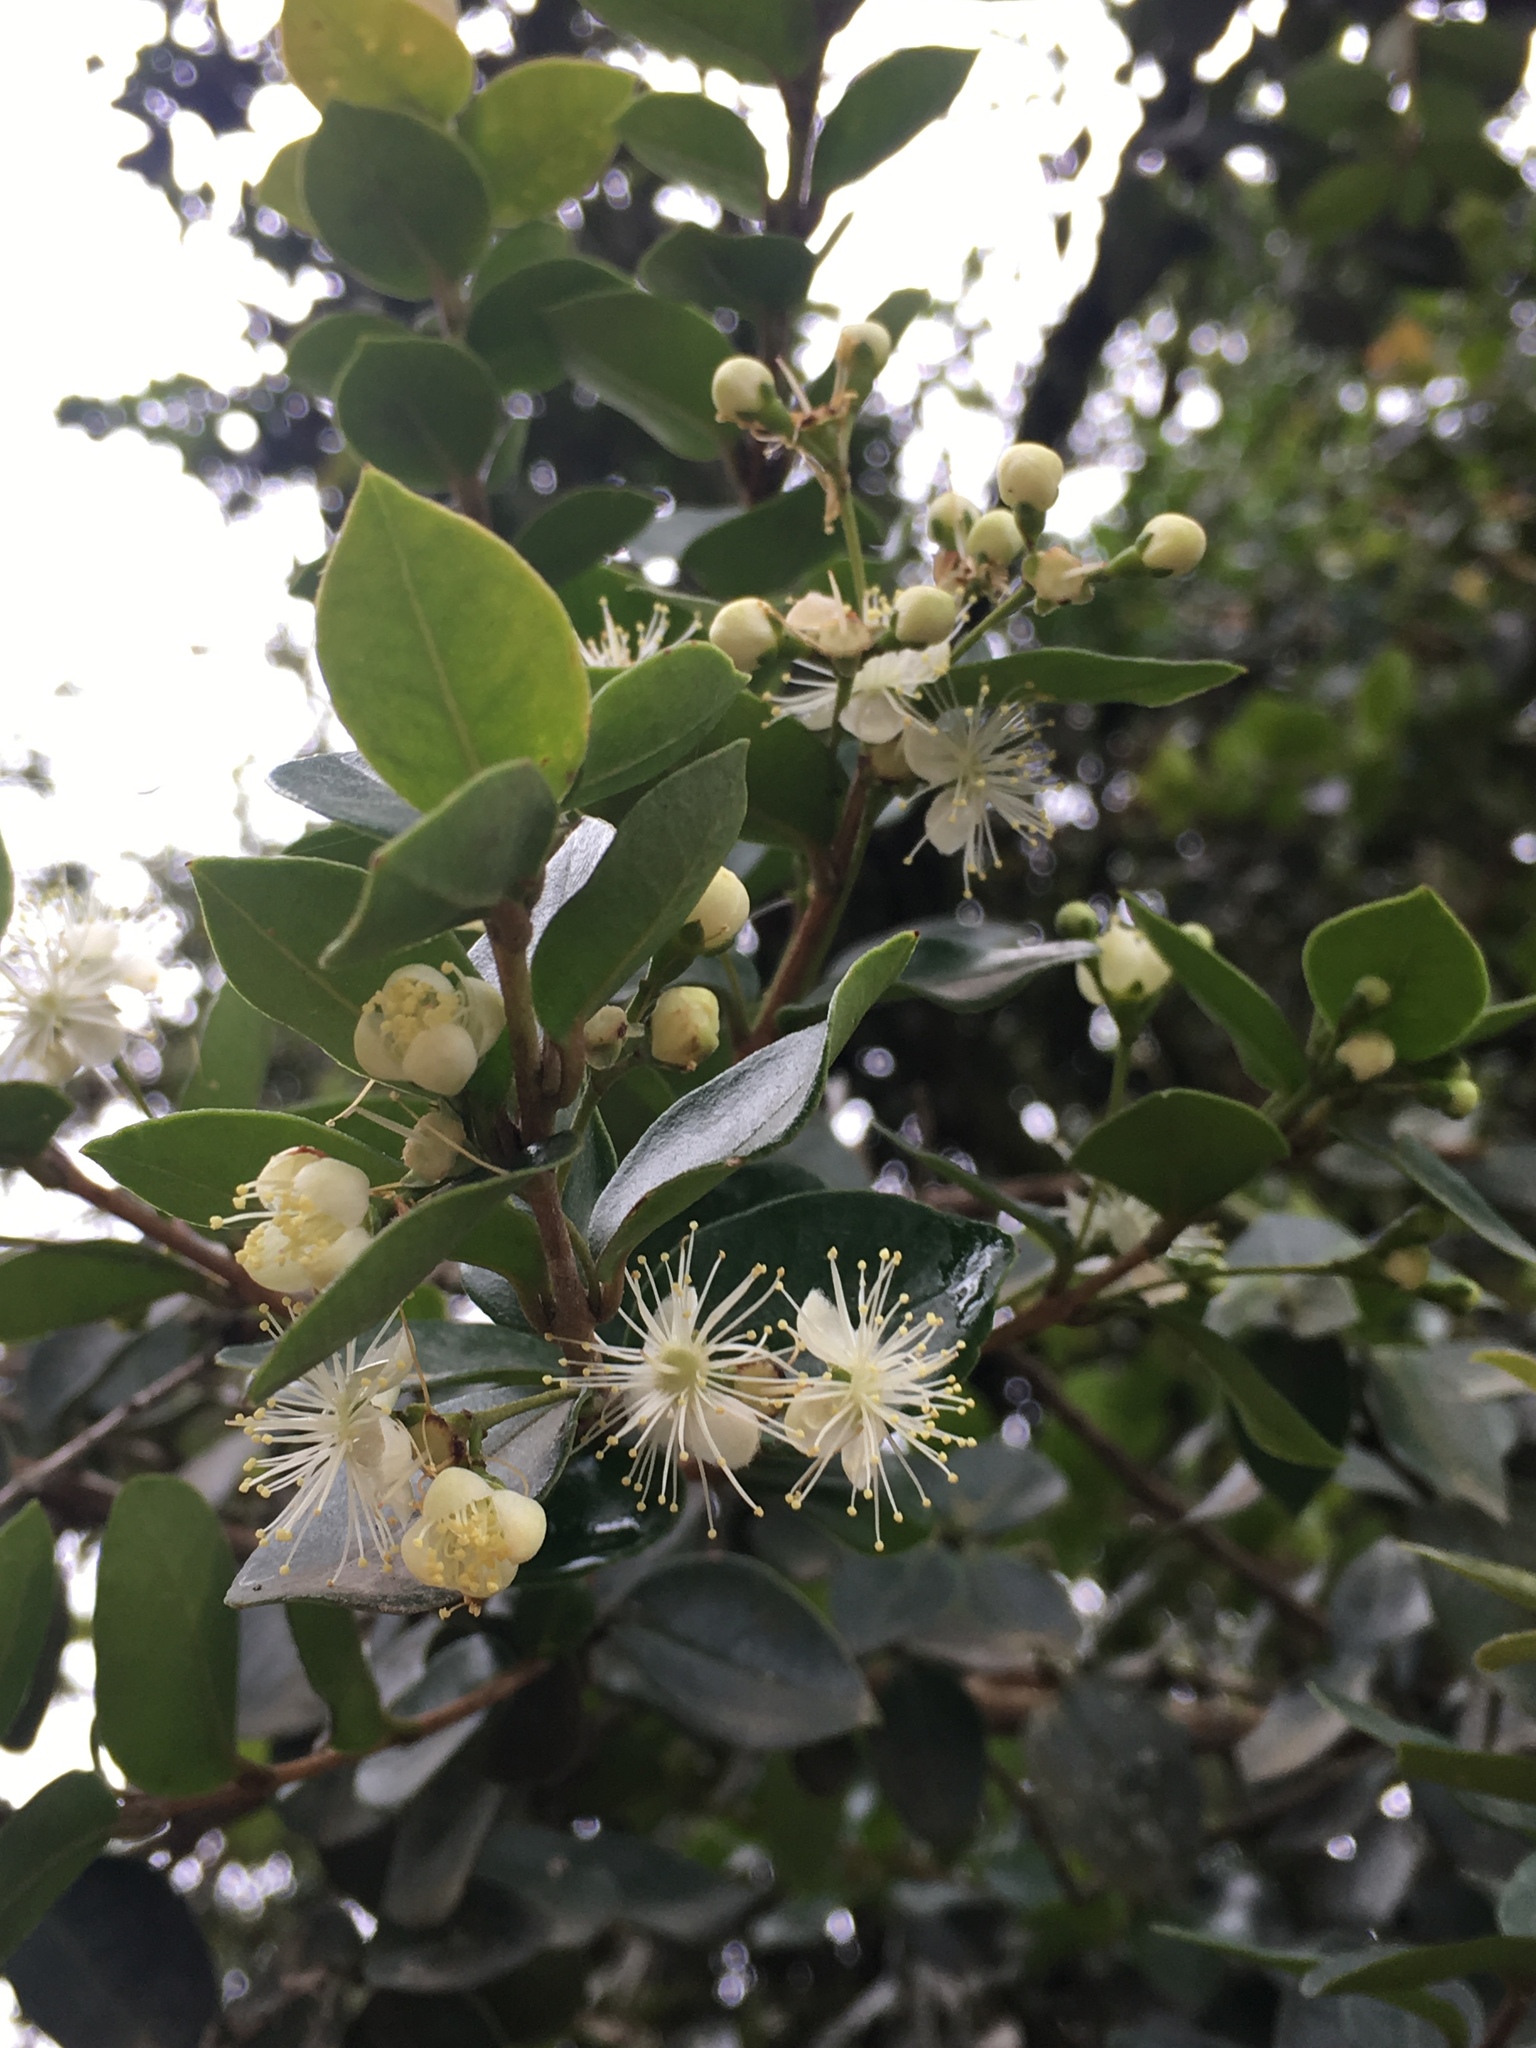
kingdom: Plantae
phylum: Tracheophyta
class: Magnoliopsida
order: Myrtales
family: Myrtaceae
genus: Myrcianthes
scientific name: Myrcianthes leucoxyla
